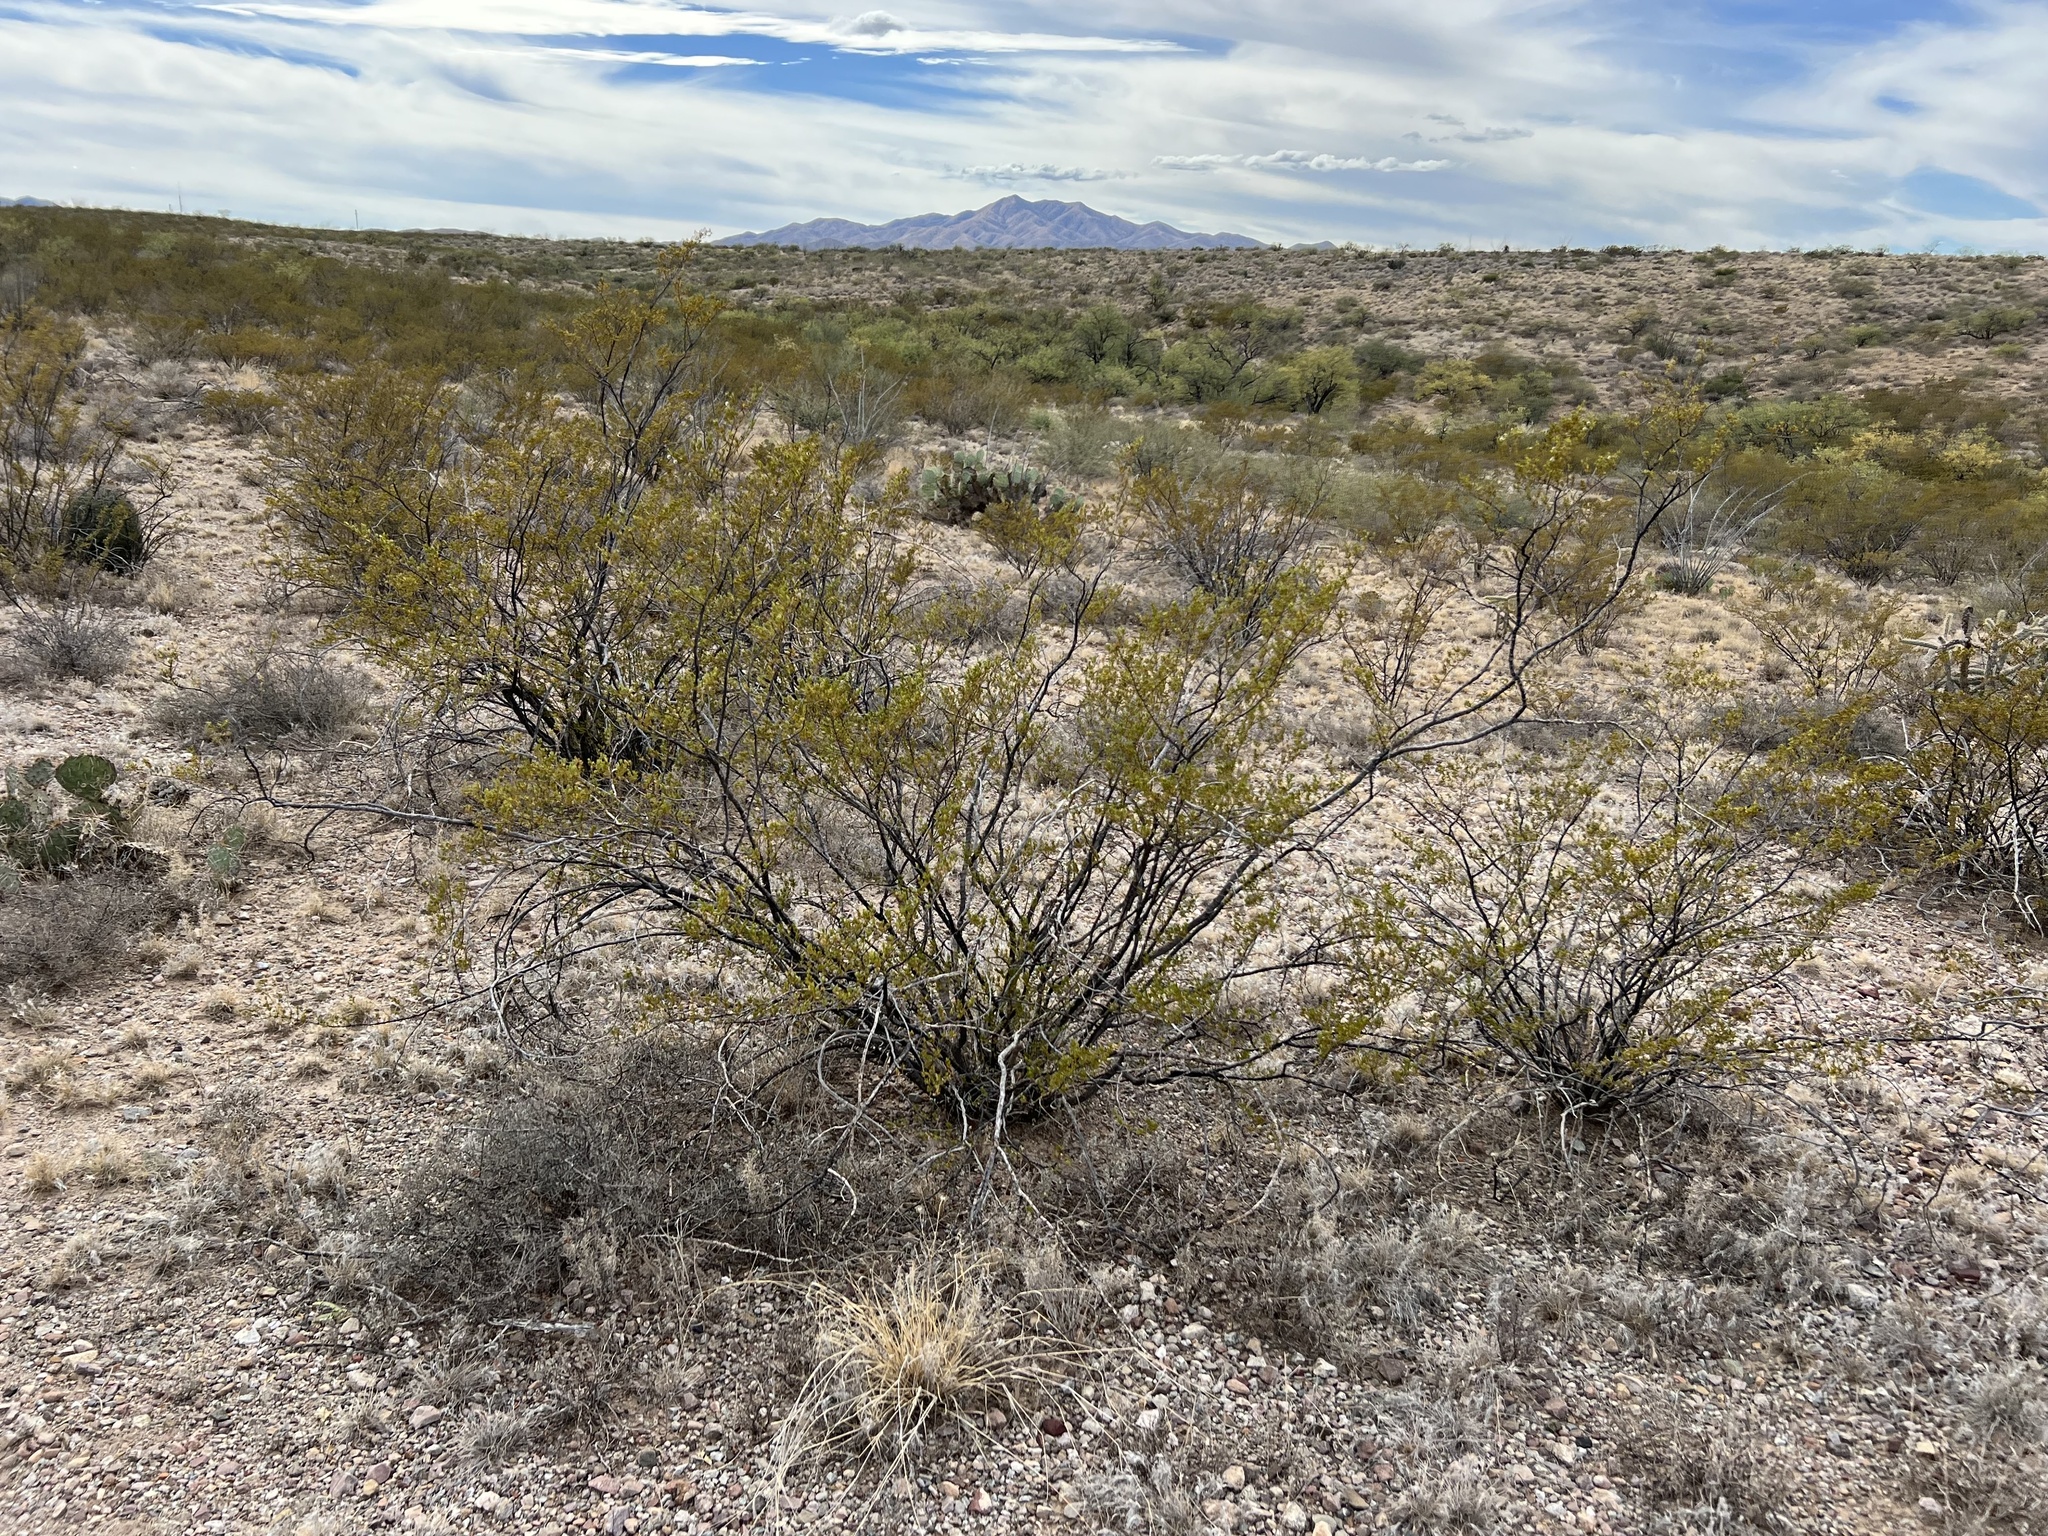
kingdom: Plantae
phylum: Tracheophyta
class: Magnoliopsida
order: Zygophyllales
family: Zygophyllaceae
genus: Larrea
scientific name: Larrea tridentata
